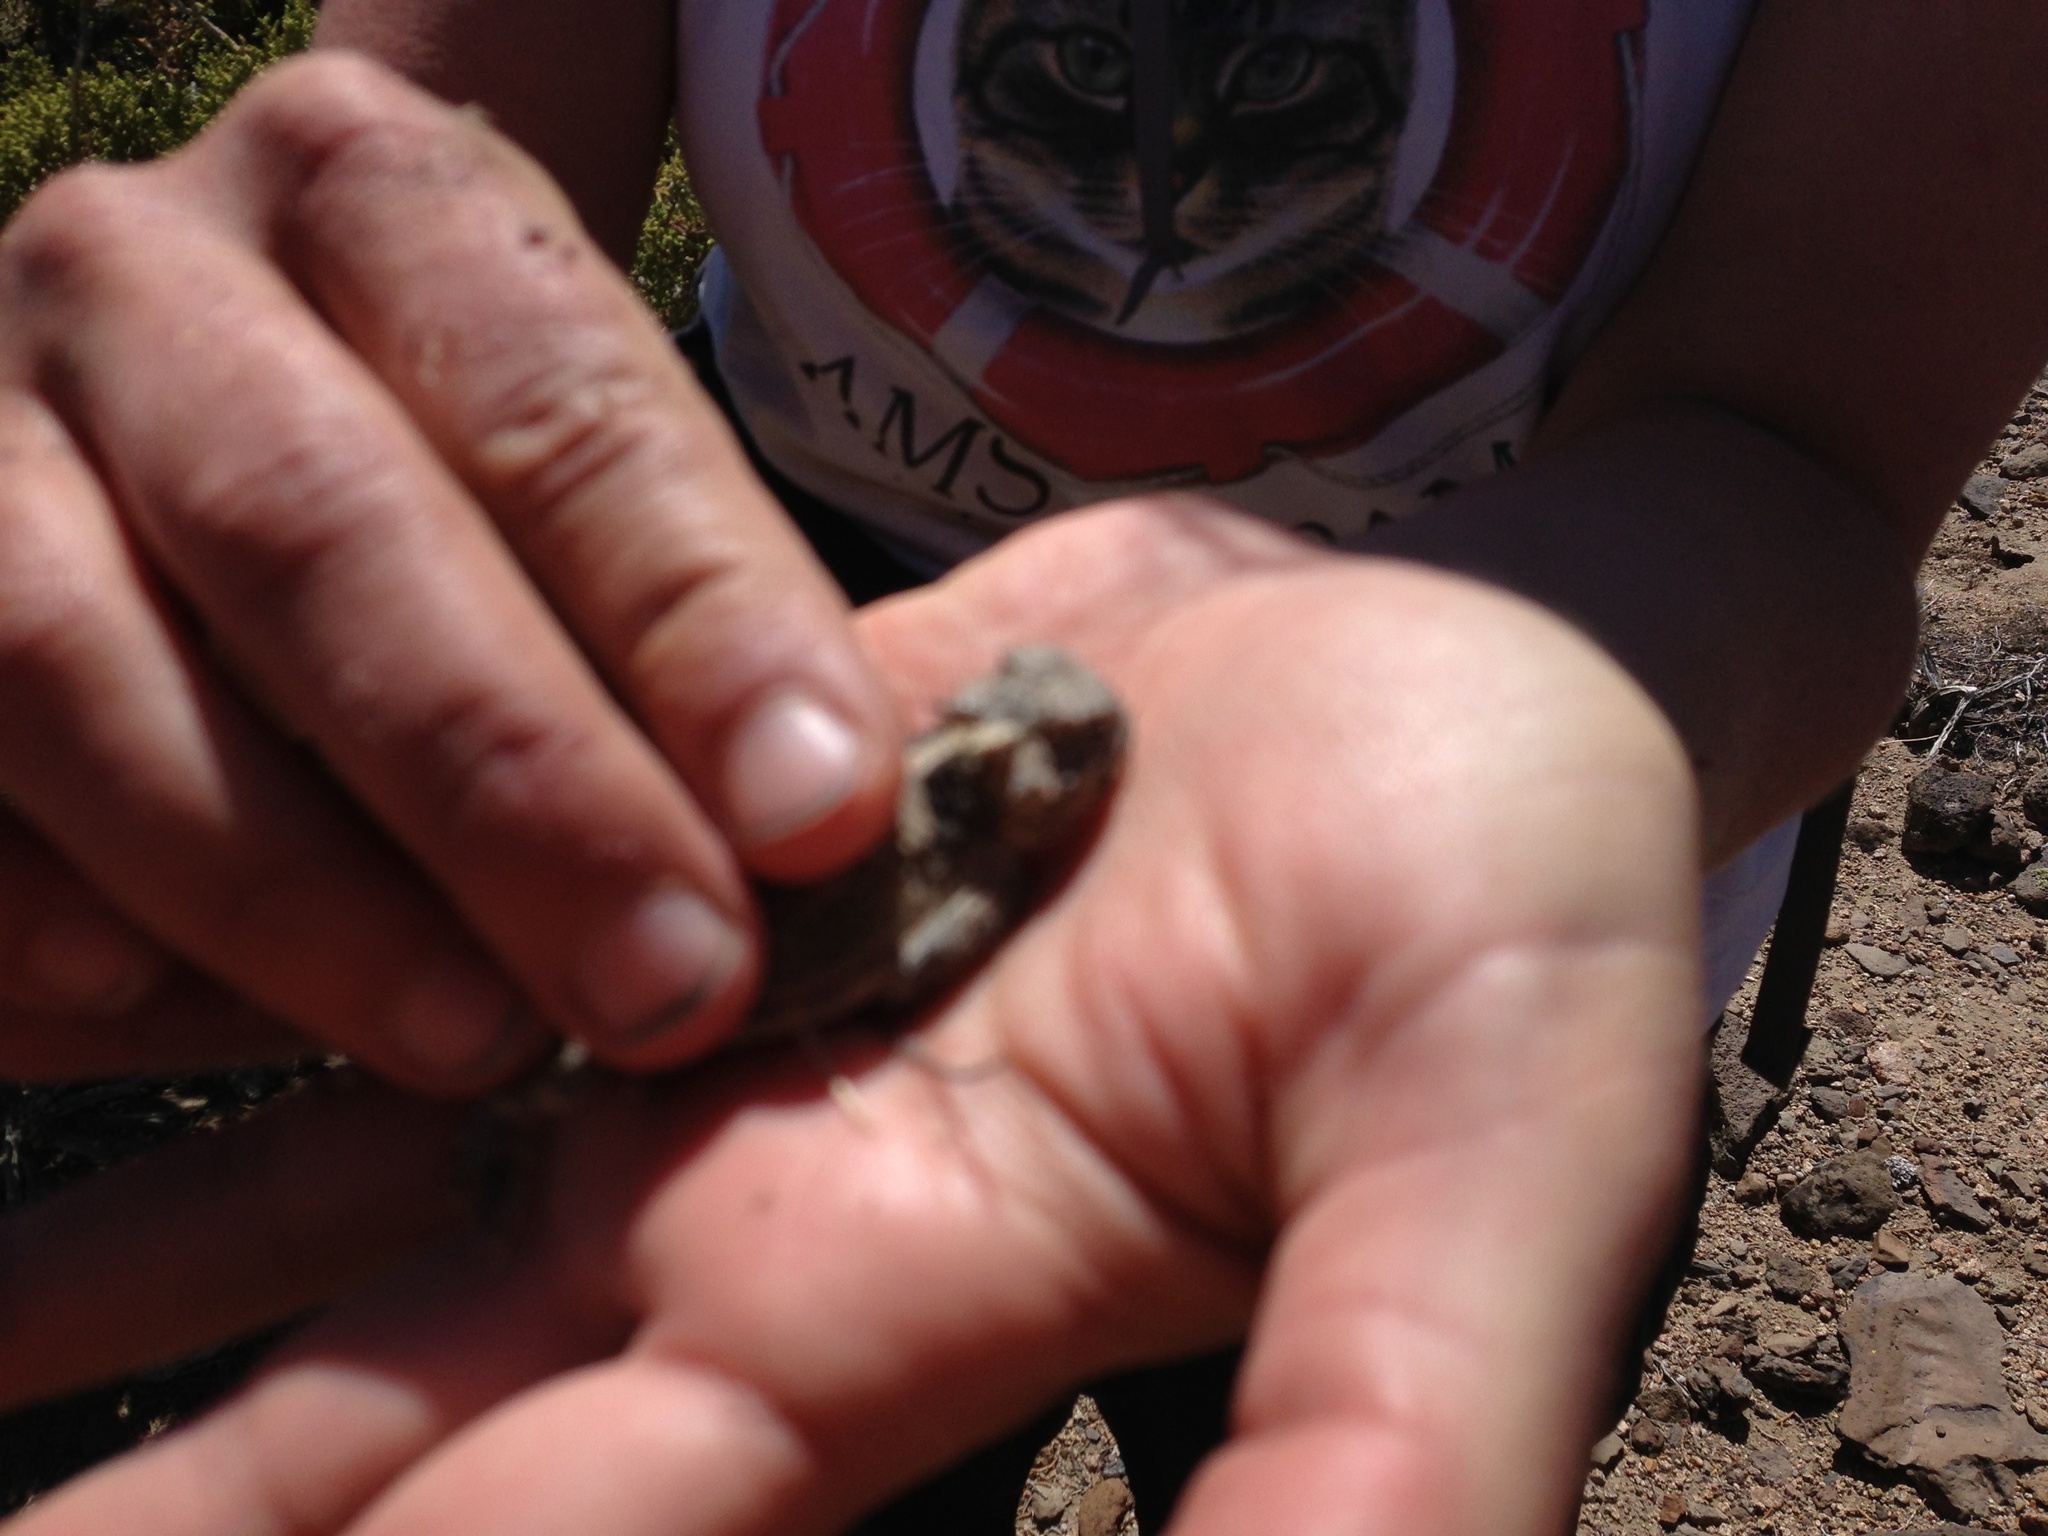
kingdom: Animalia
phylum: Chordata
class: Squamata
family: Phrynosomatidae
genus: Phrynosoma
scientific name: Phrynosoma platyrhinos
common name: Desert horned lizard
